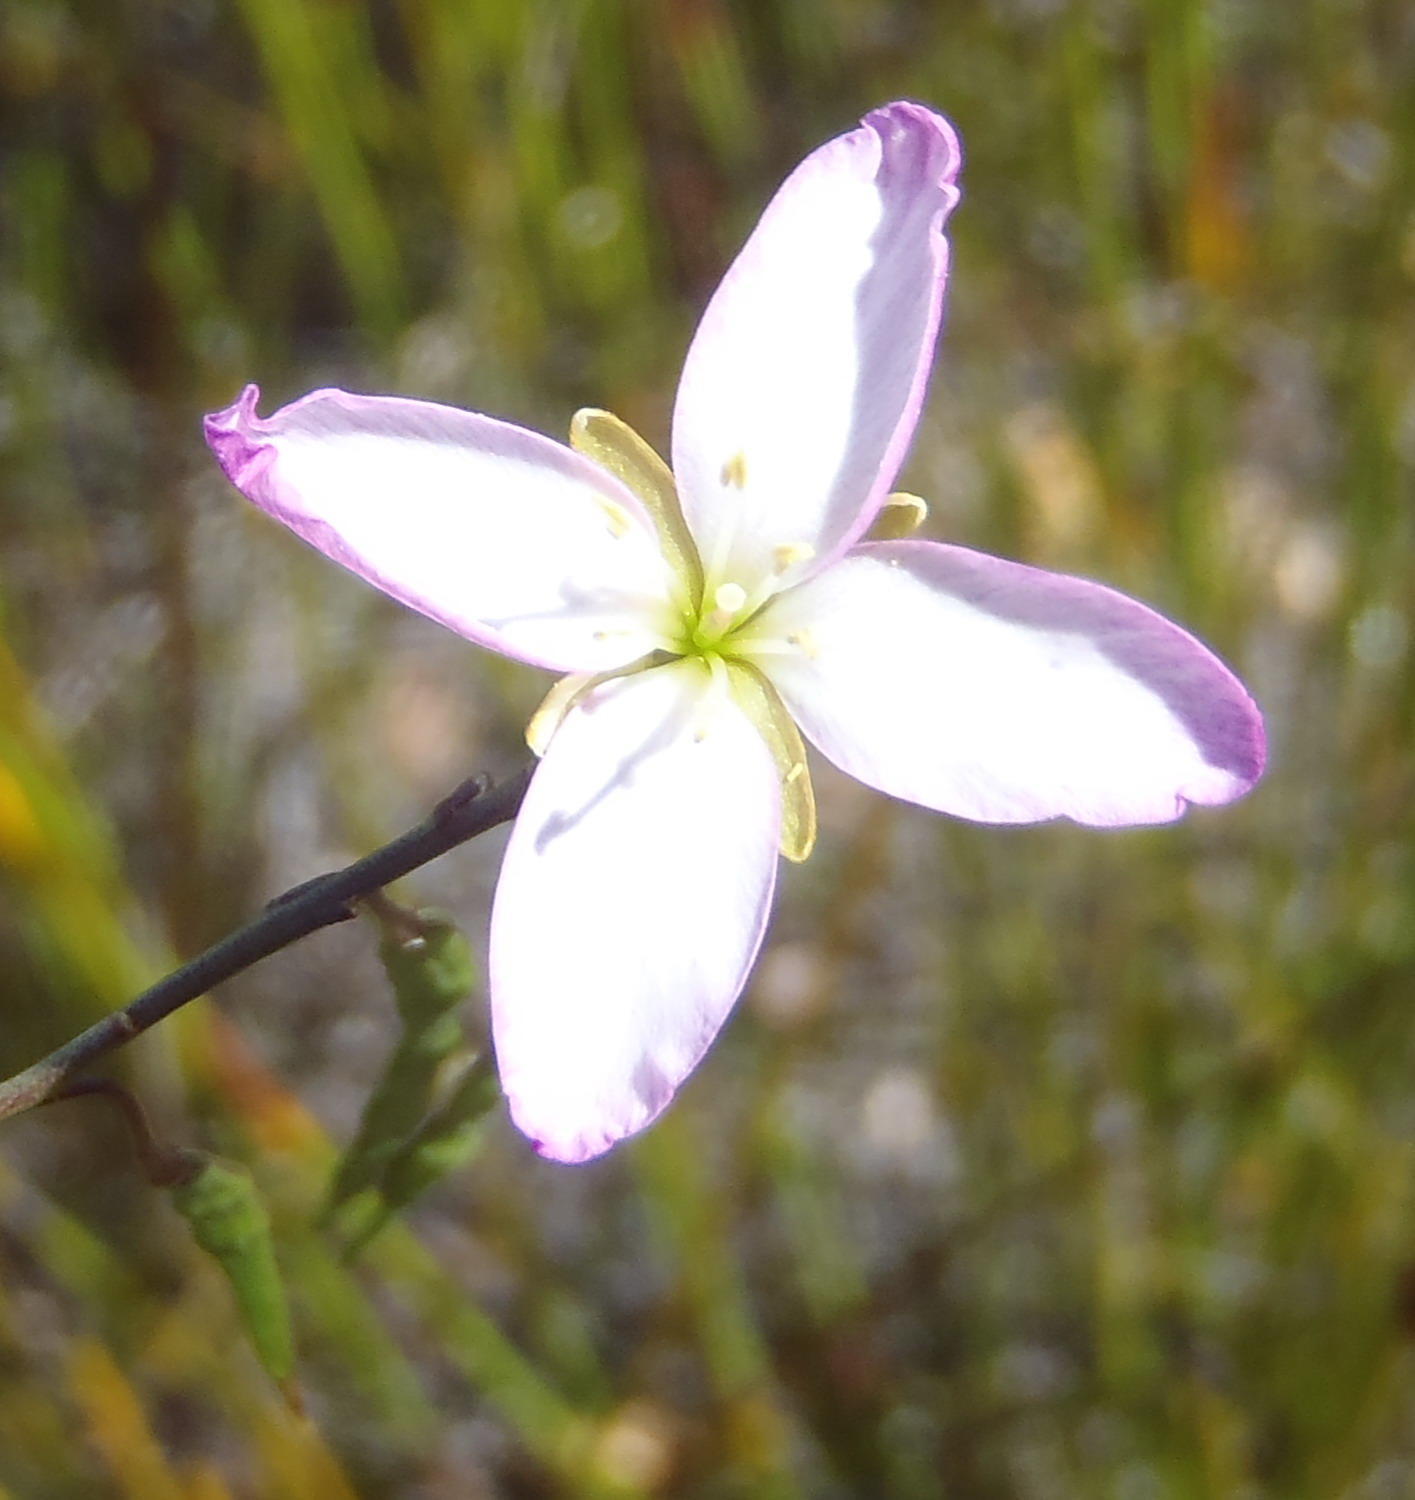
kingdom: Plantae
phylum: Tracheophyta
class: Magnoliopsida
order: Brassicales
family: Brassicaceae
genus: Heliophila
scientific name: Heliophila
